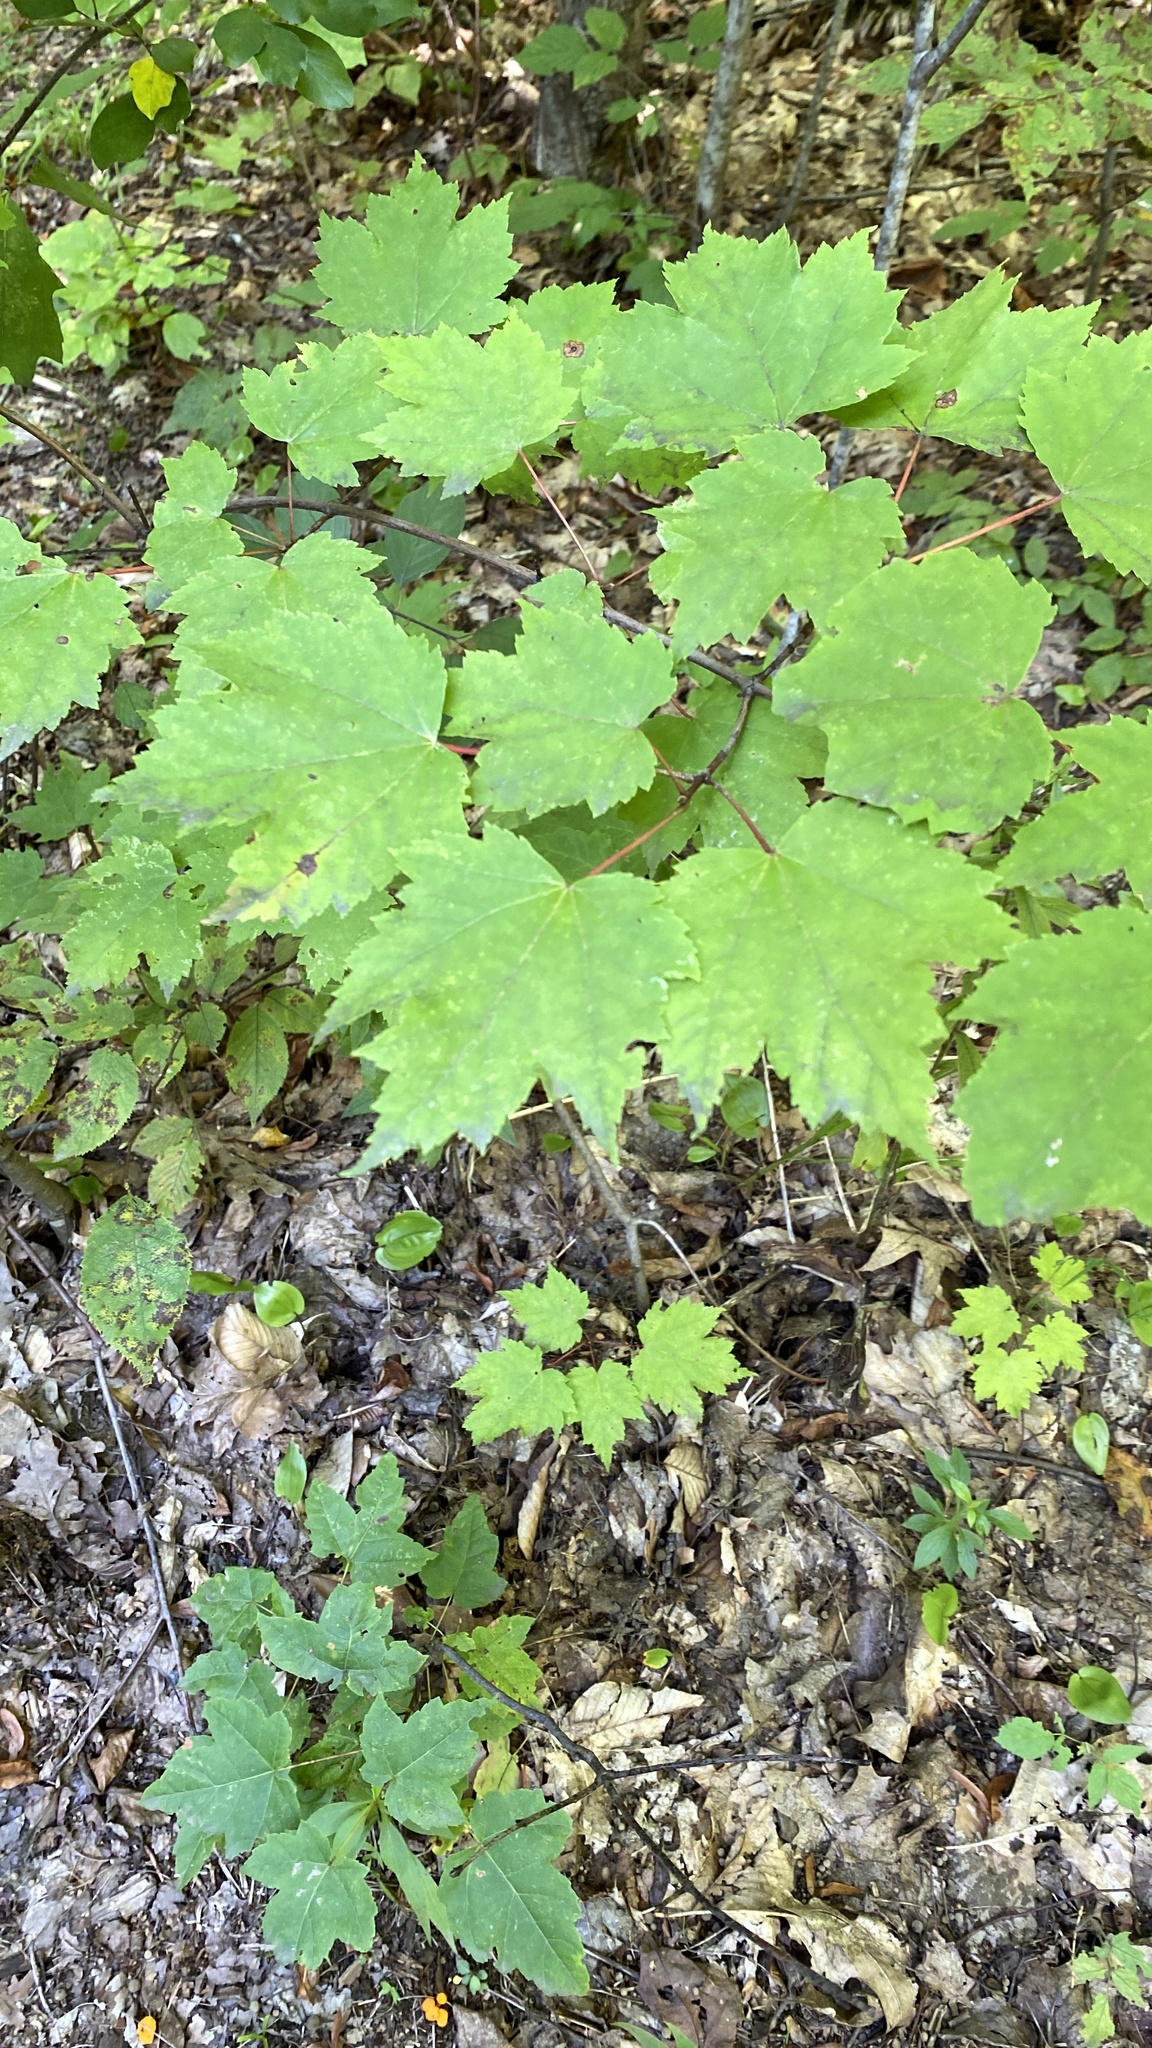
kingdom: Plantae
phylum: Tracheophyta
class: Magnoliopsida
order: Sapindales
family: Sapindaceae
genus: Acer
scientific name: Acer rubrum
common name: Red maple
